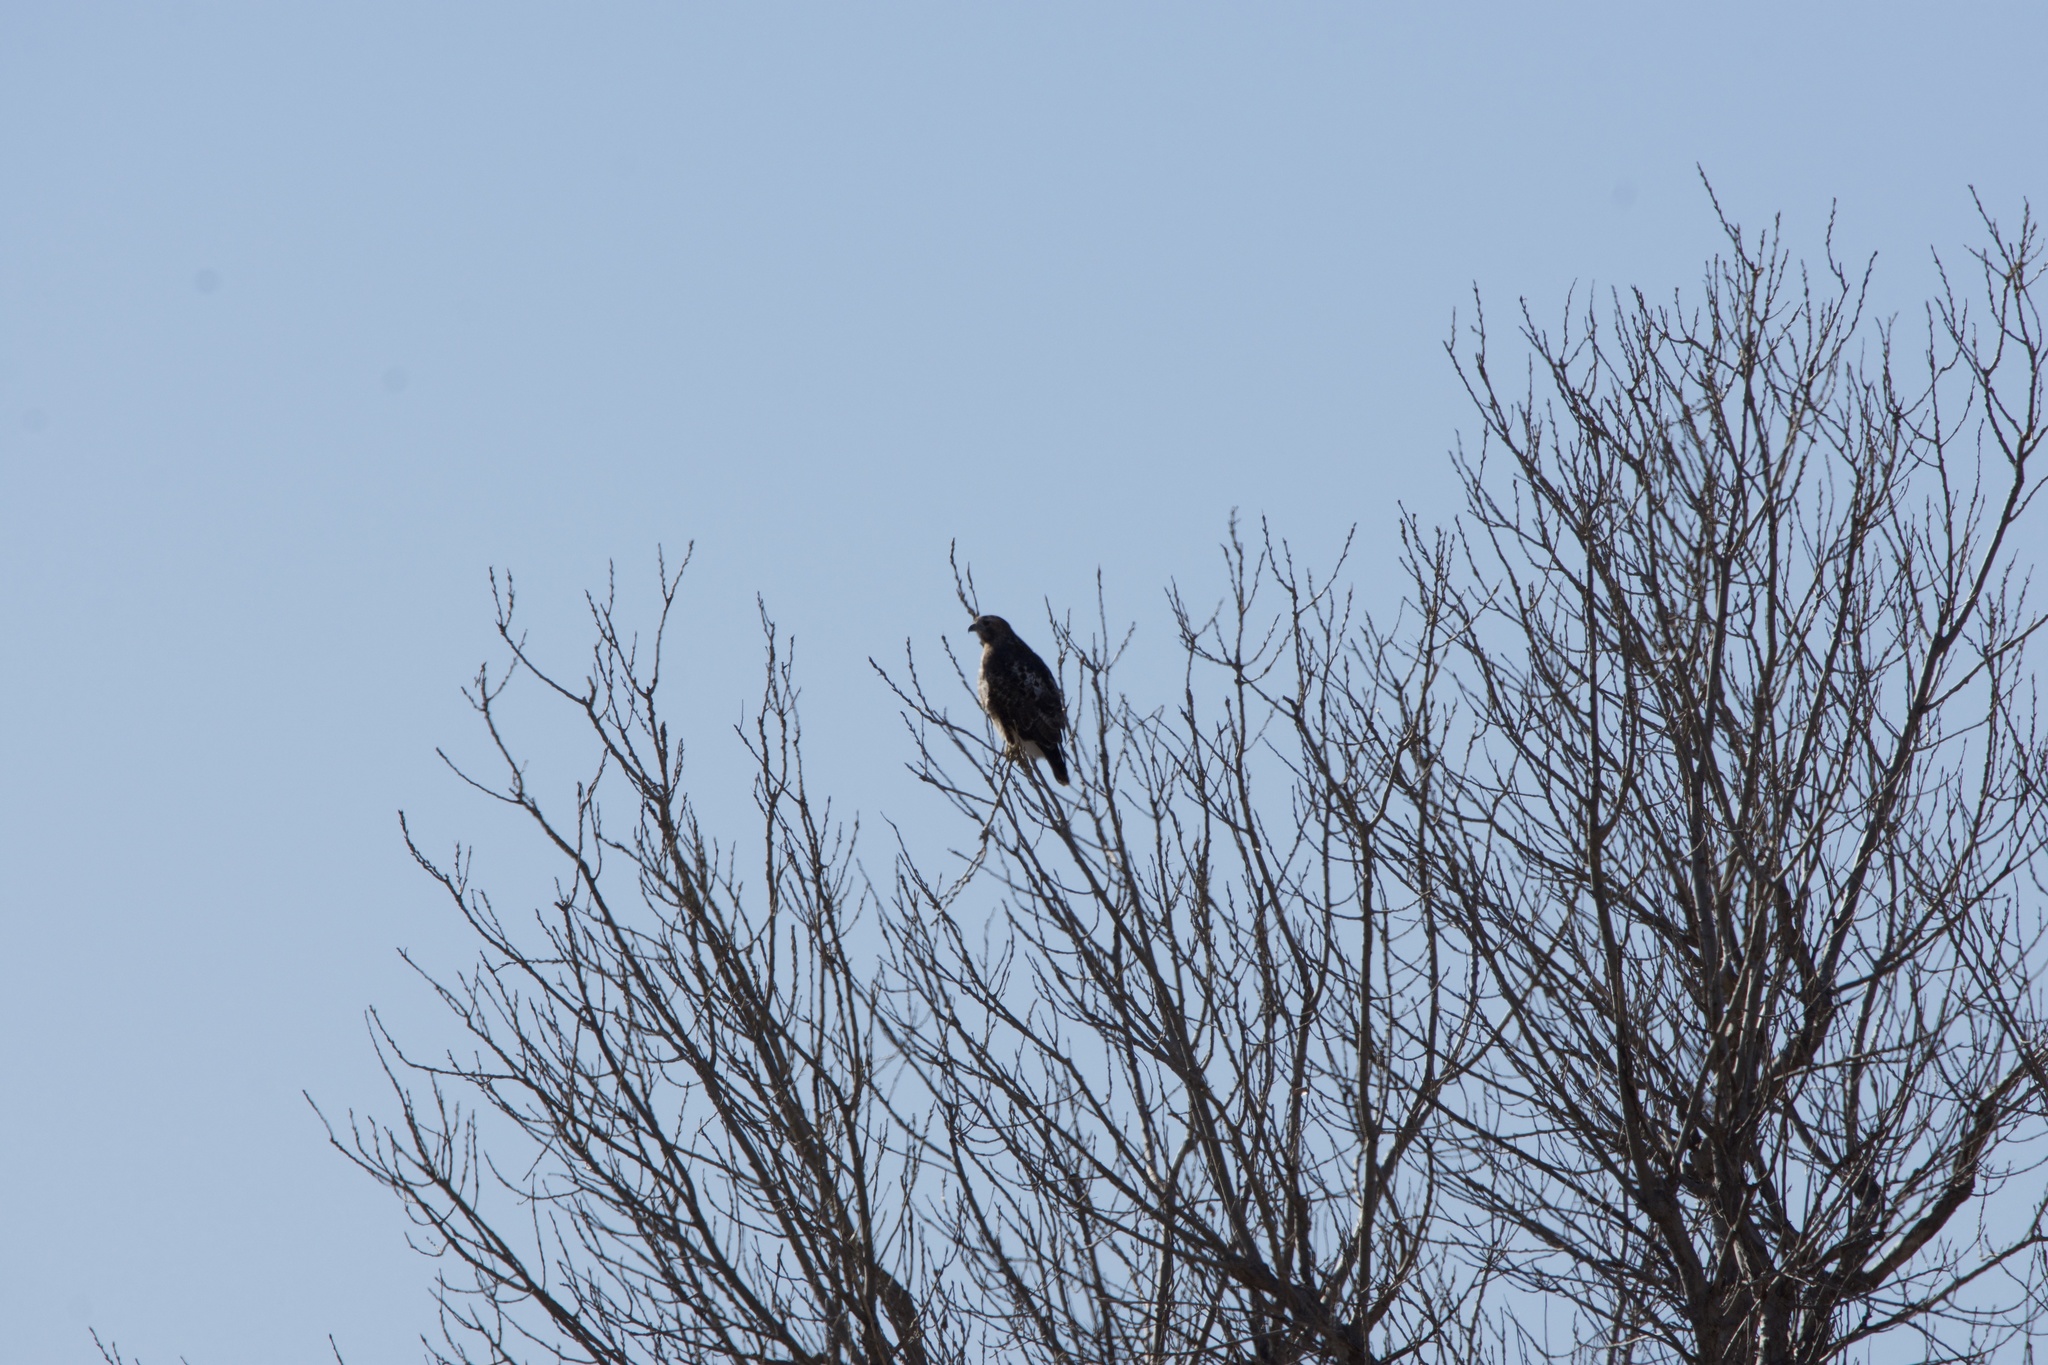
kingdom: Animalia
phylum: Chordata
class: Aves
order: Accipitriformes
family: Accipitridae
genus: Buteo
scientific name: Buteo jamaicensis
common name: Red-tailed hawk
